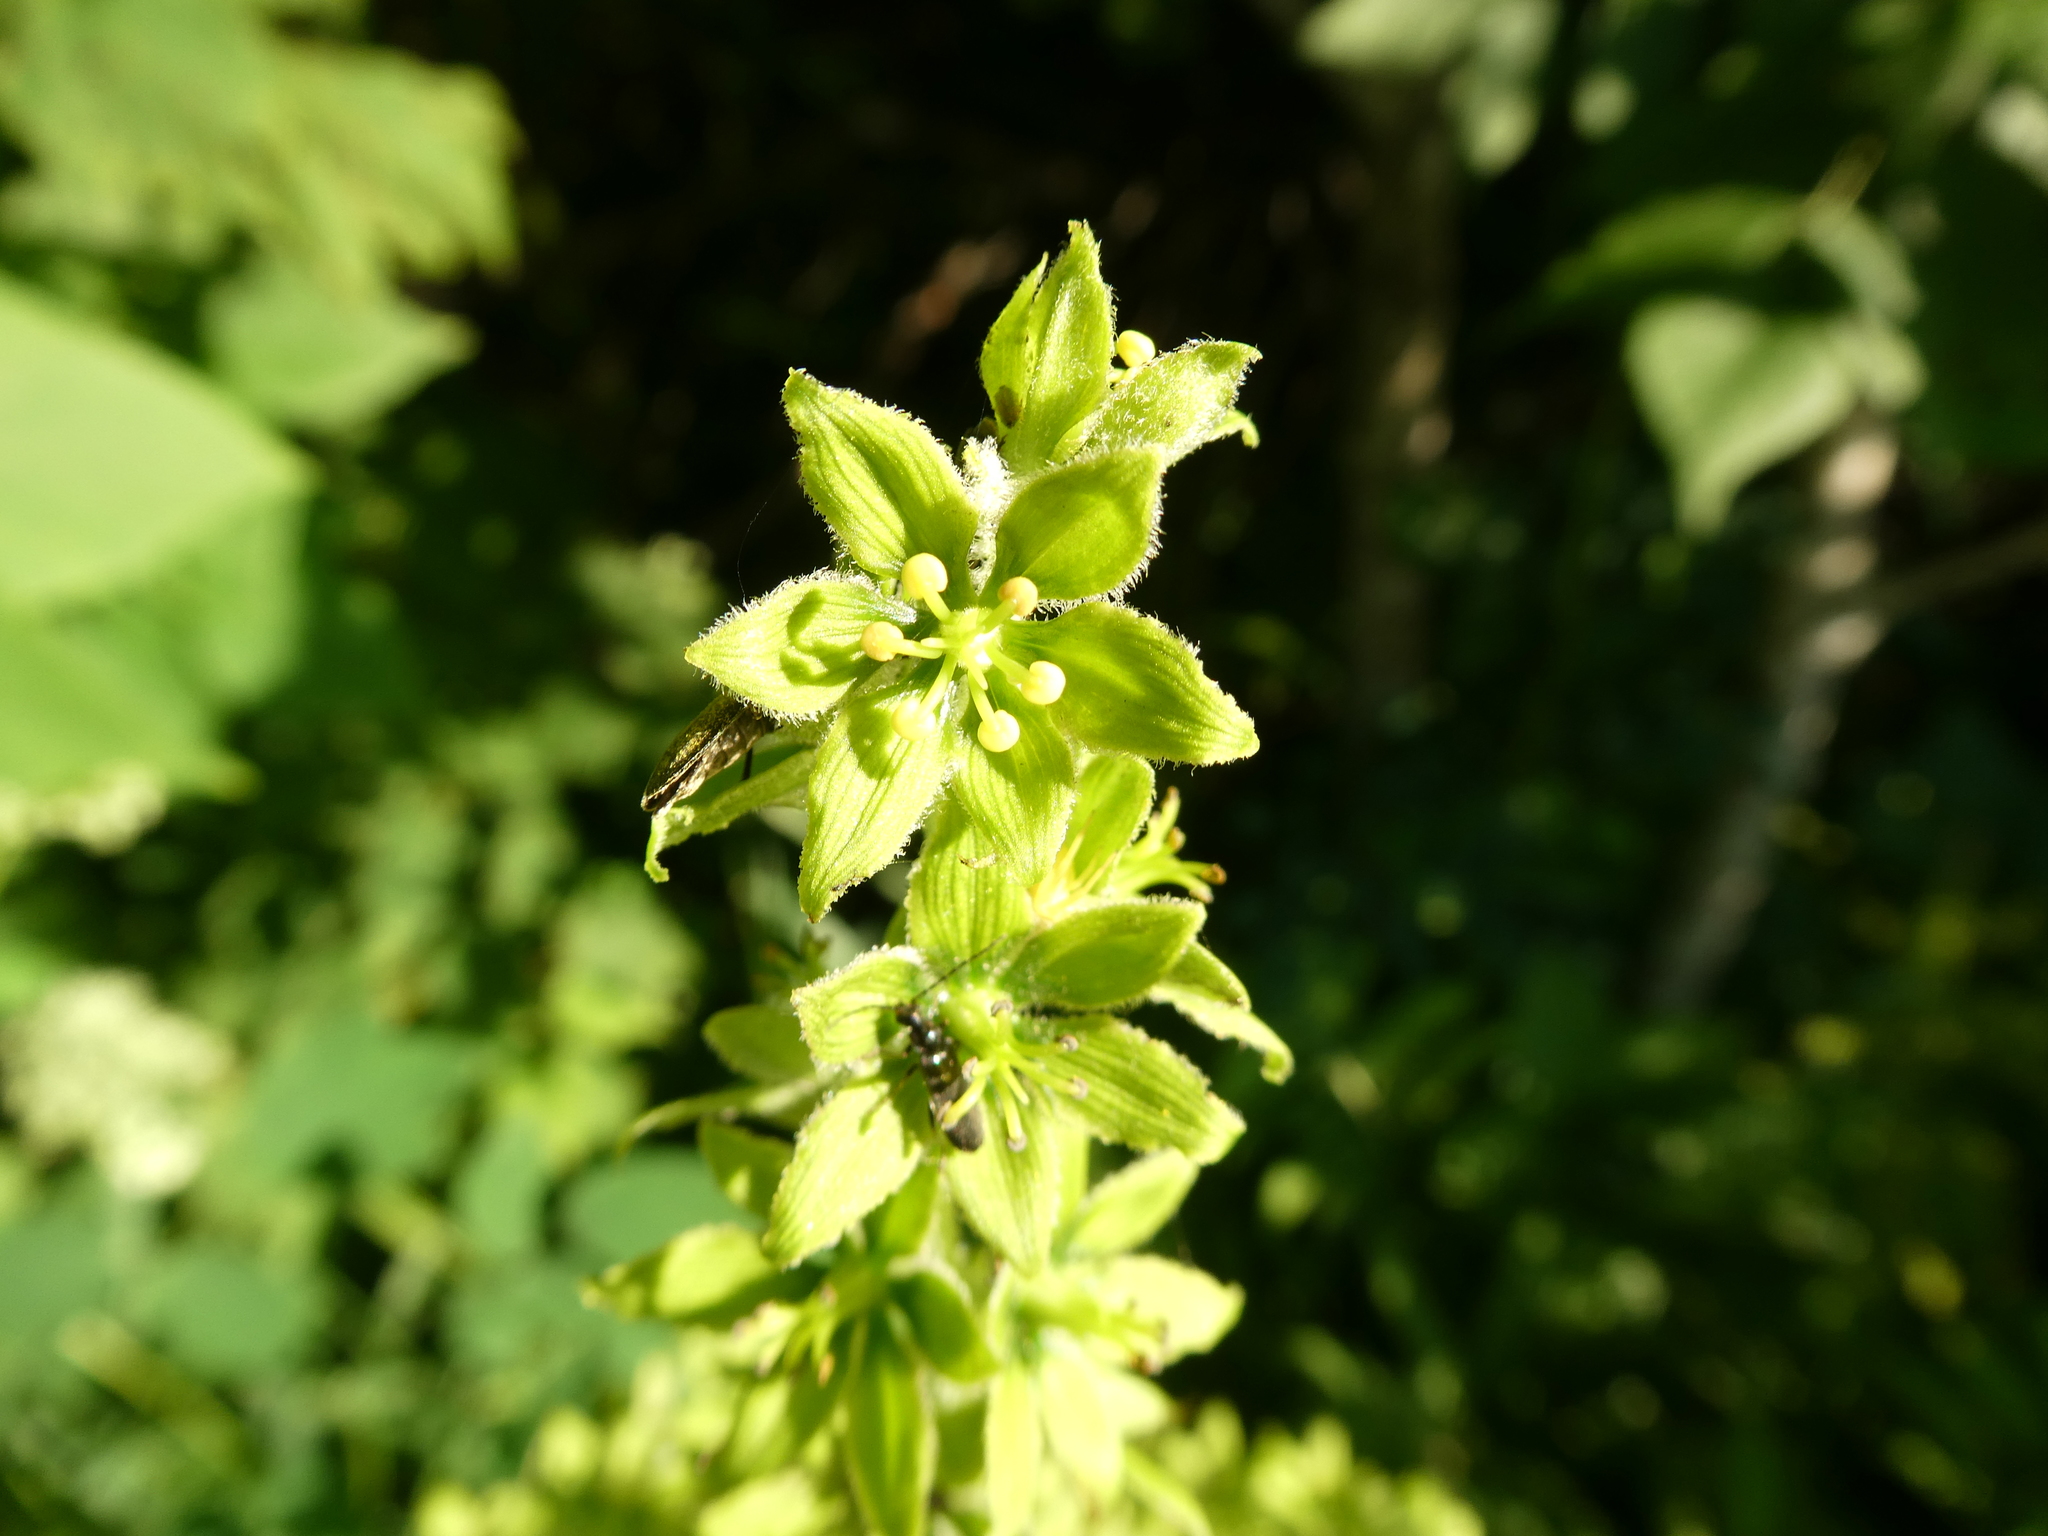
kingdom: Plantae
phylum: Tracheophyta
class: Liliopsida
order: Liliales
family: Melanthiaceae
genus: Veratrum
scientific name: Veratrum viride
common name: American false hellebore
